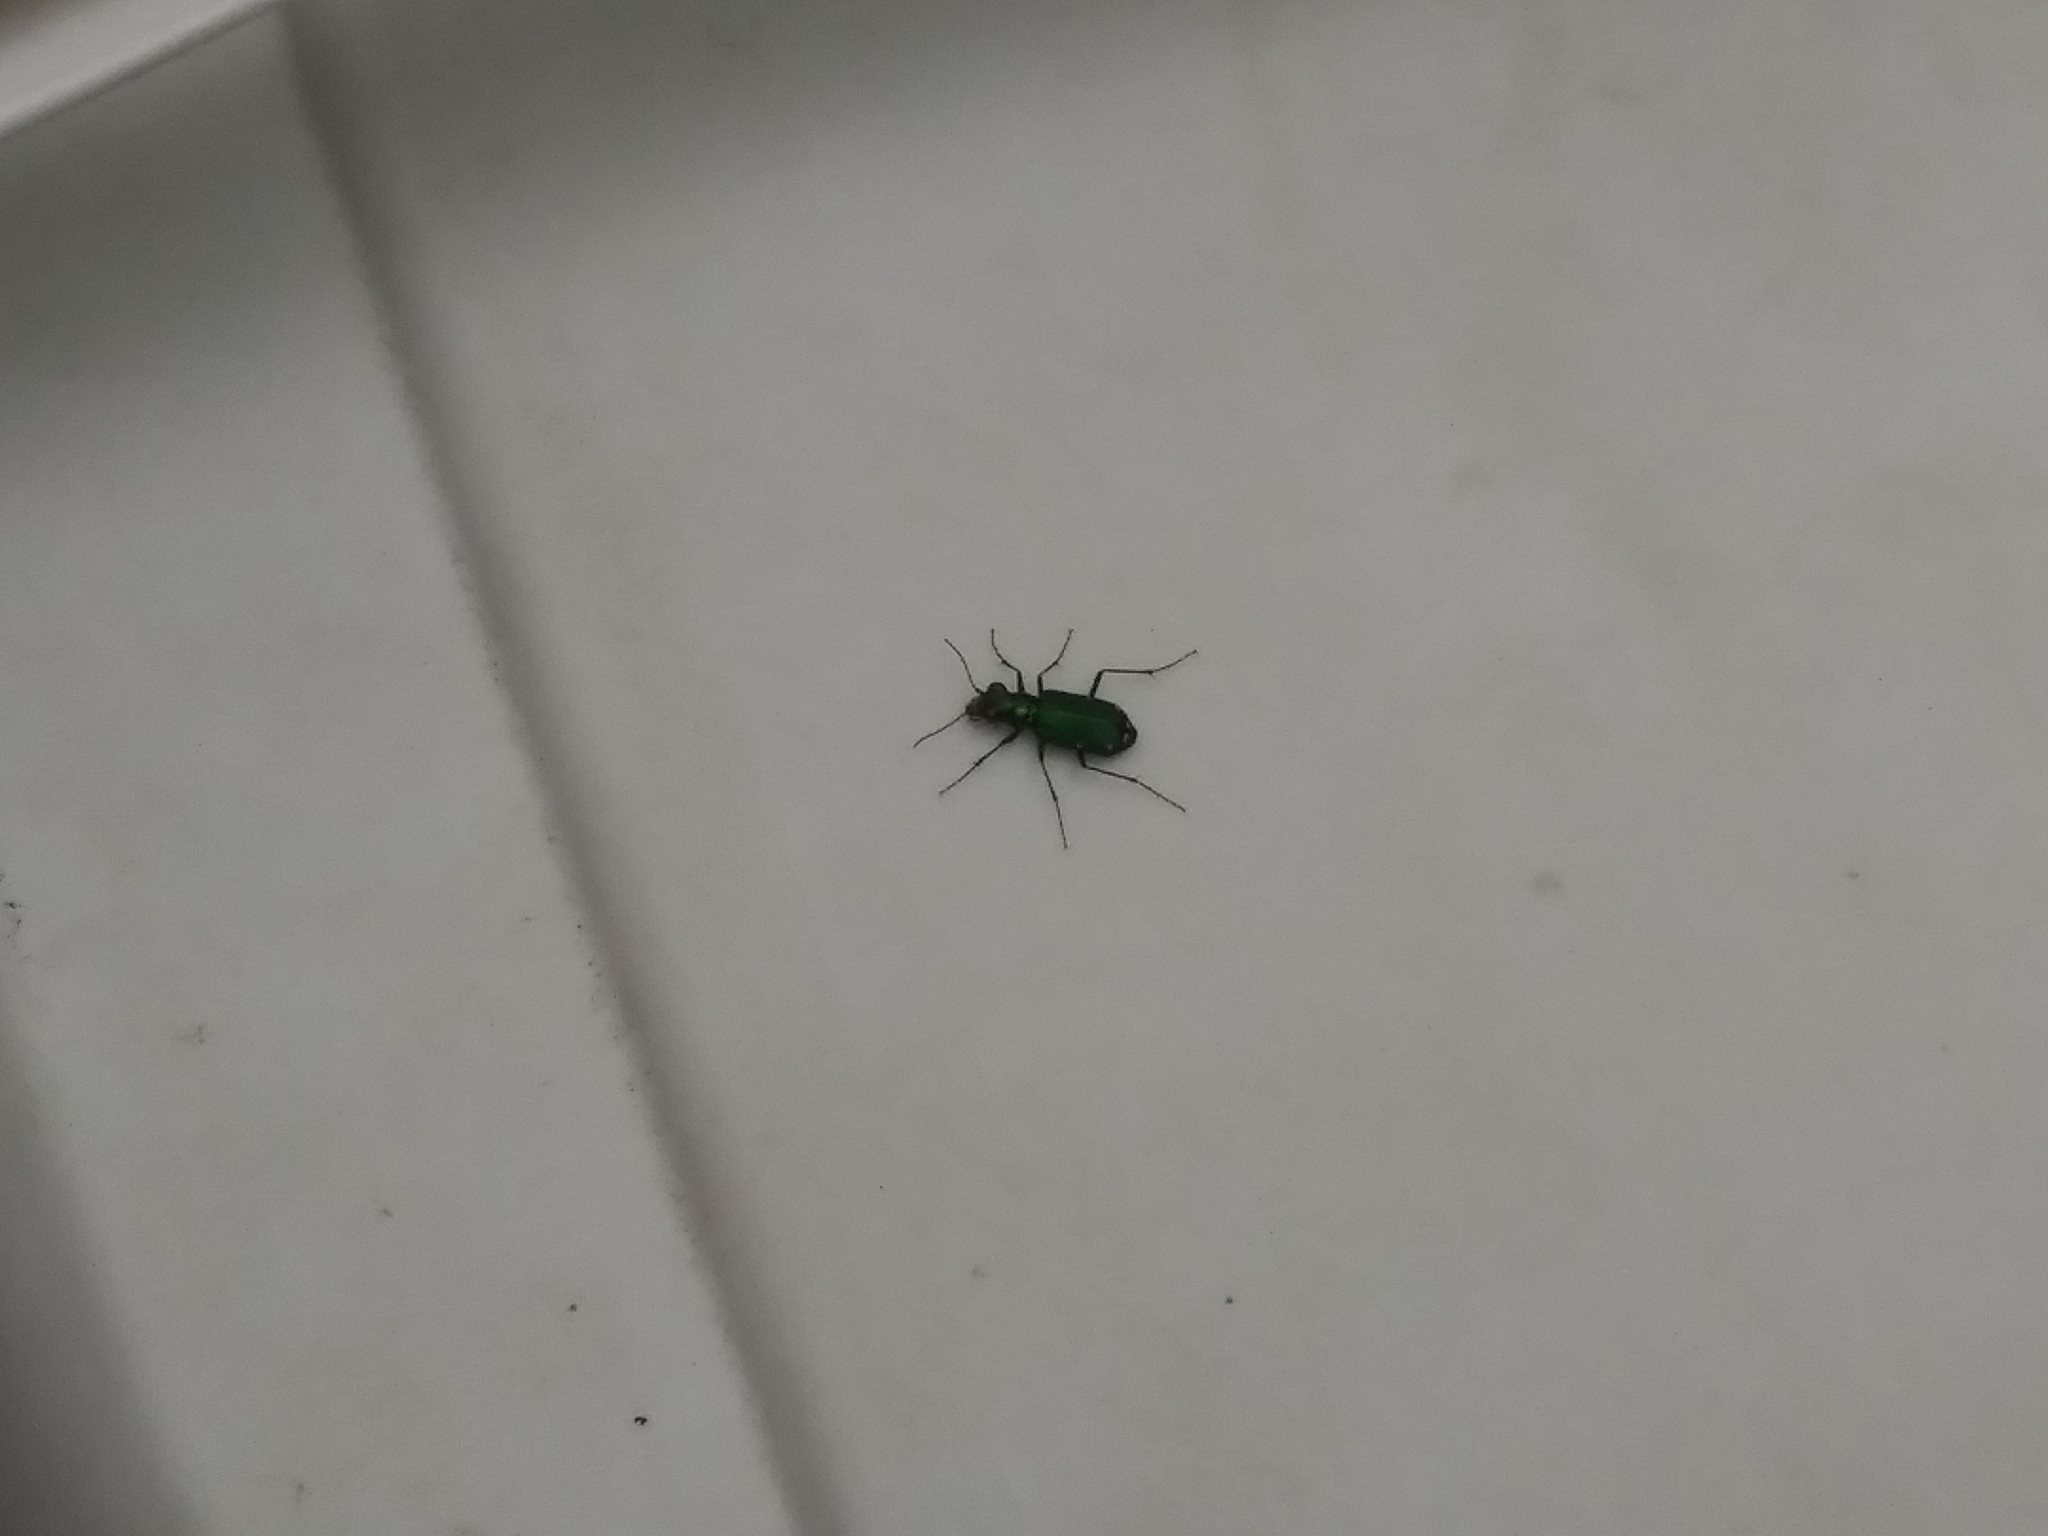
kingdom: Animalia
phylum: Arthropoda
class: Insecta
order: Coleoptera
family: Carabidae
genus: Cicindela
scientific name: Cicindela sexguttata
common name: Six-spotted tiger beetle
